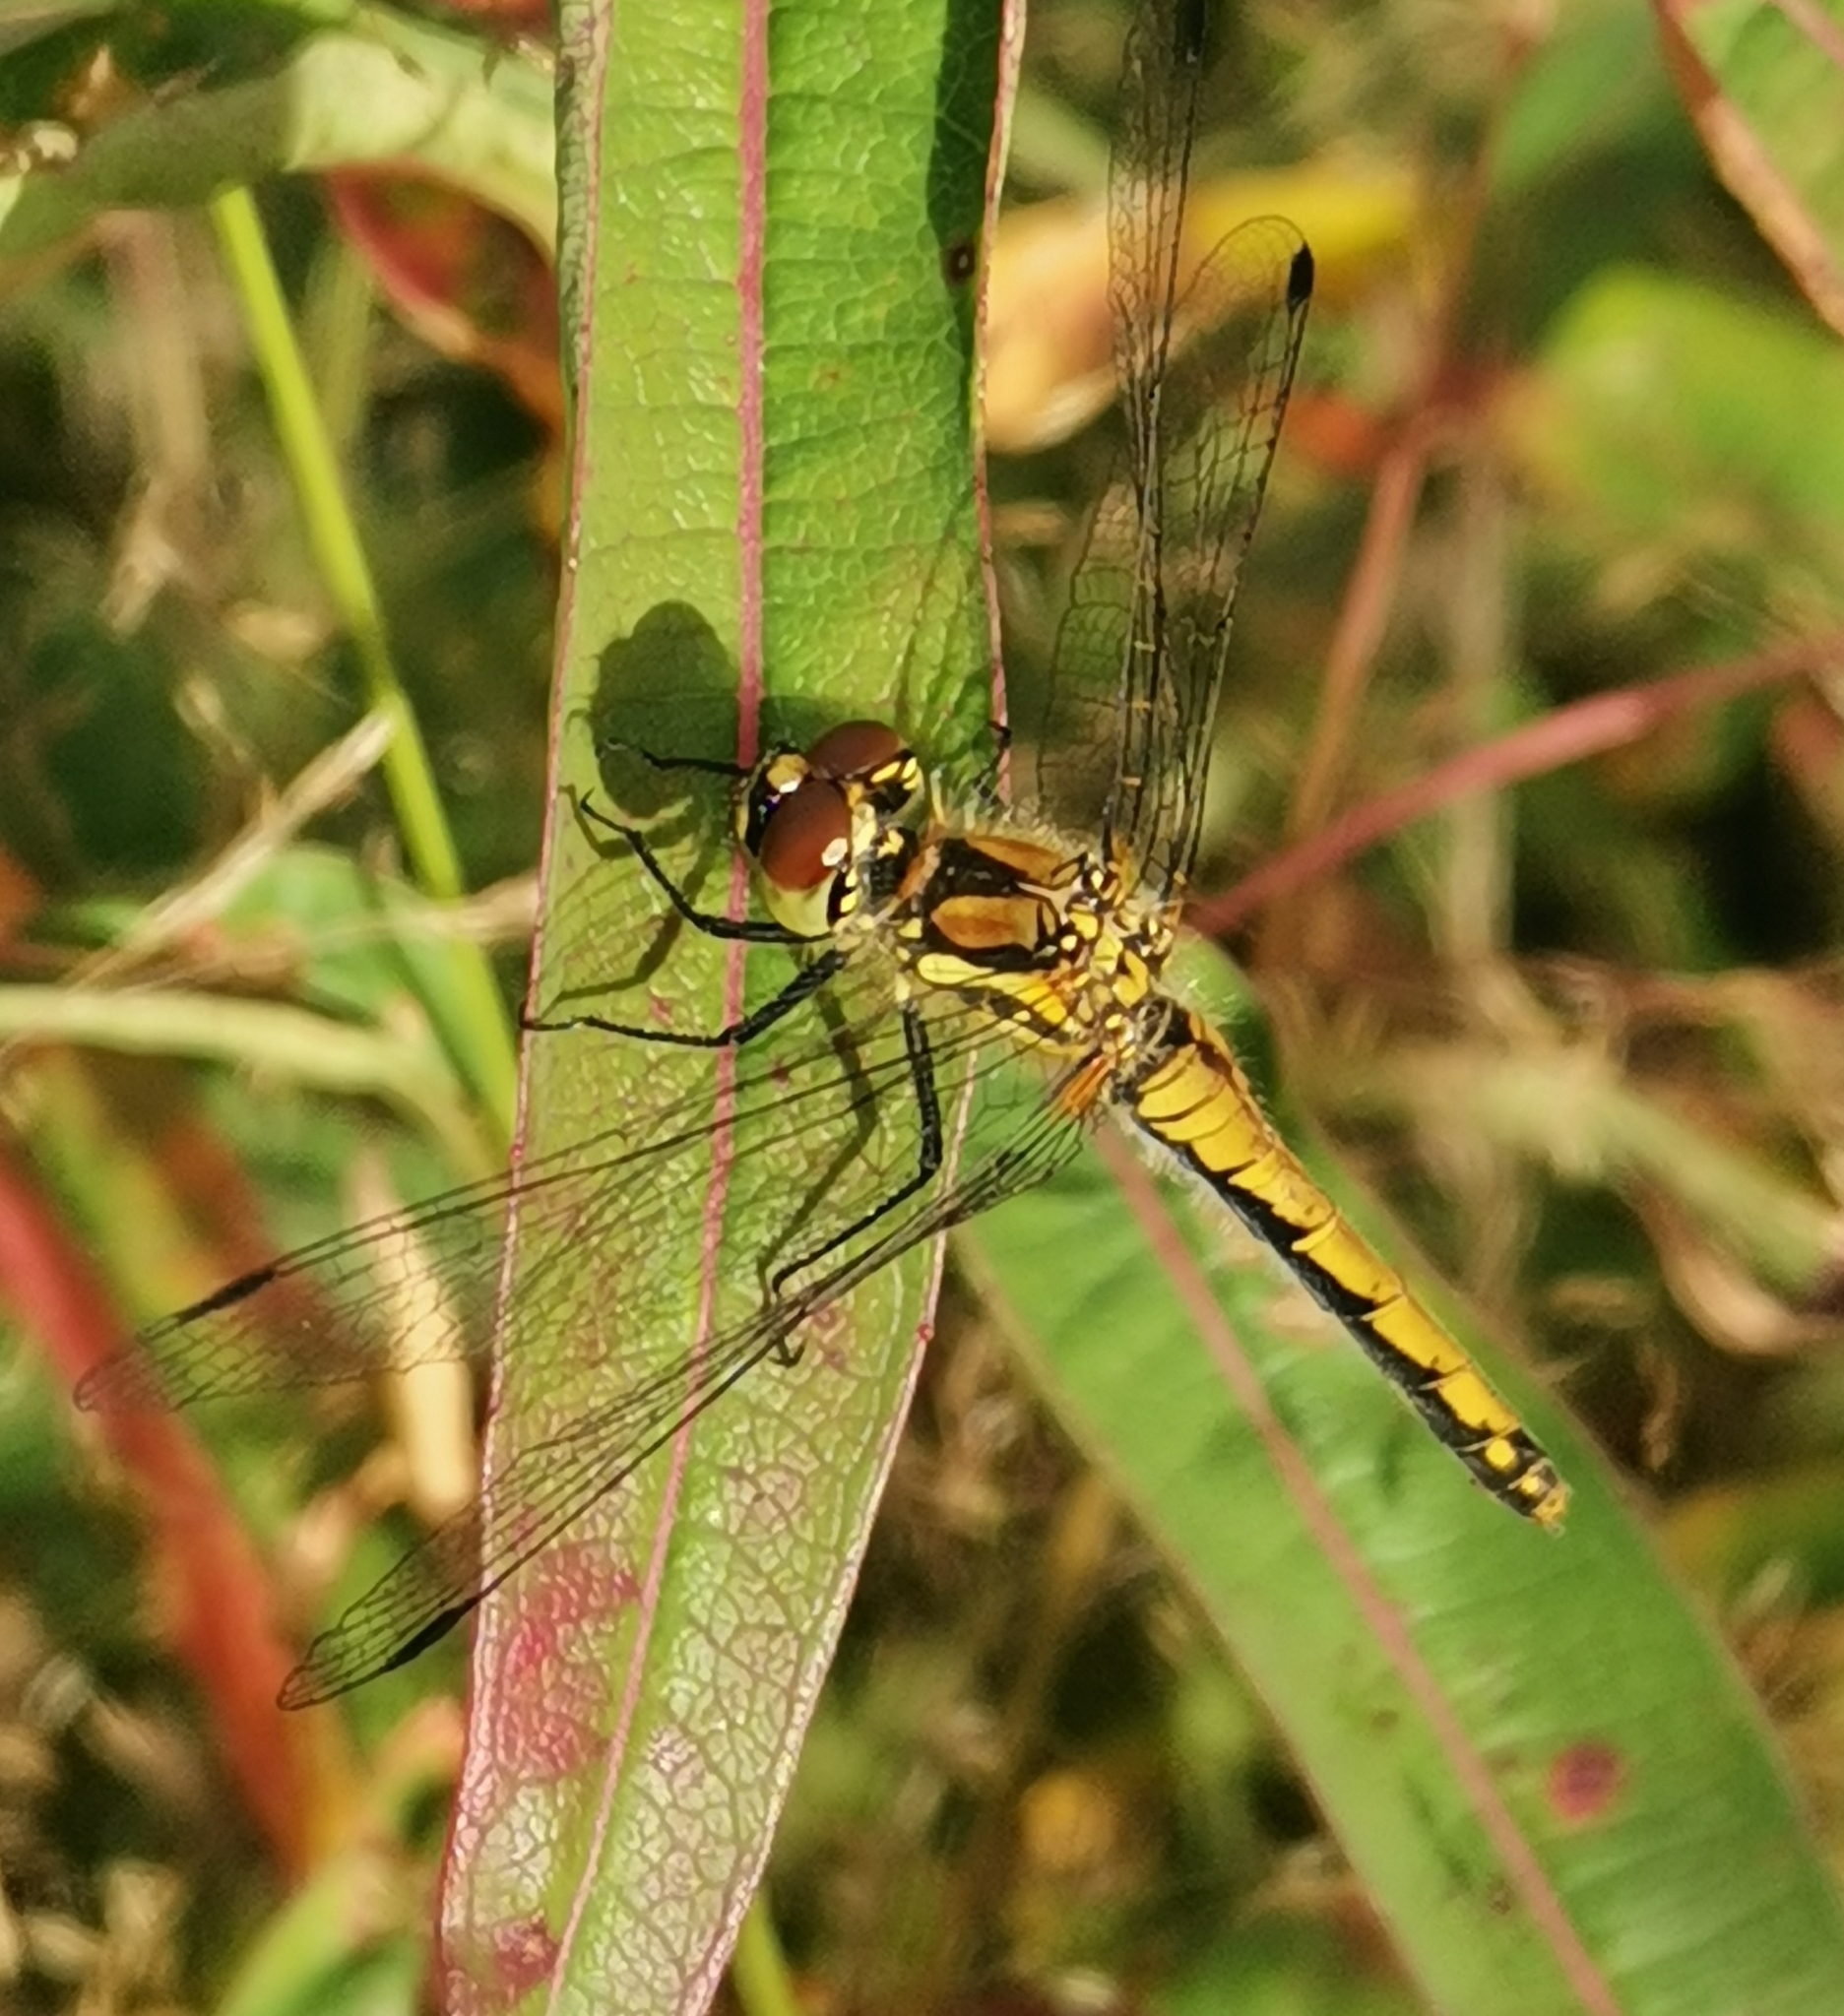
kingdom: Animalia
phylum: Arthropoda
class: Insecta
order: Odonata
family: Libellulidae
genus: Sympetrum
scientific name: Sympetrum danae
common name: Black darter
